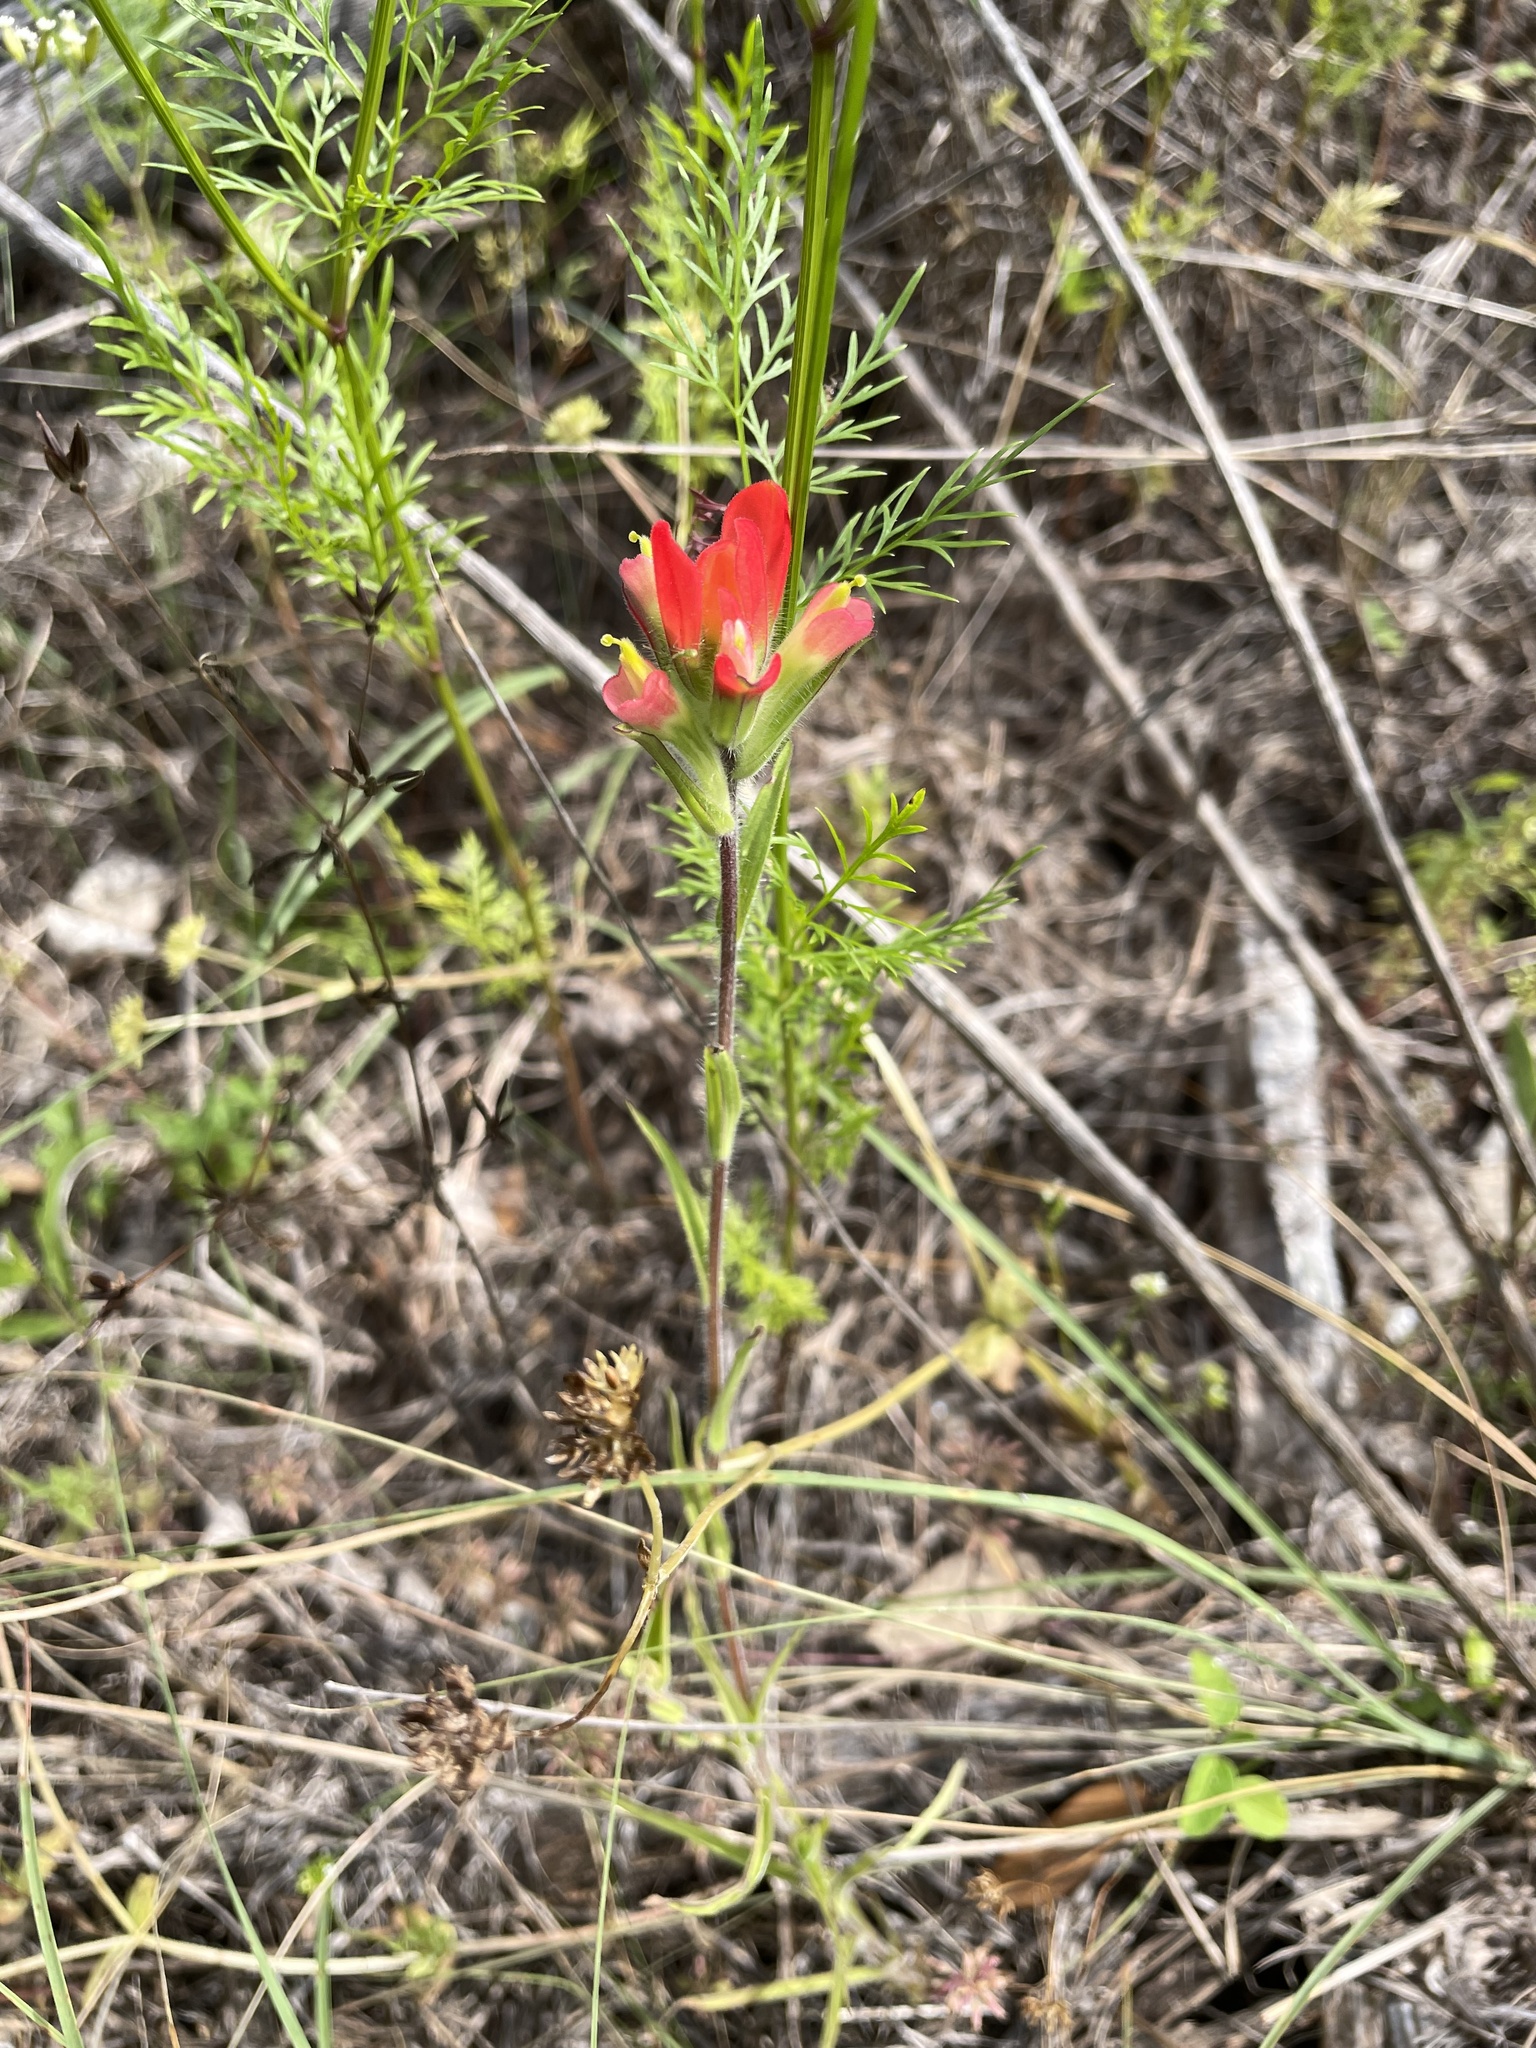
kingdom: Plantae
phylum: Tracheophyta
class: Magnoliopsida
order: Lamiales
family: Orobanchaceae
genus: Castilleja
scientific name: Castilleja indivisa
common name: Texas paintbrush
